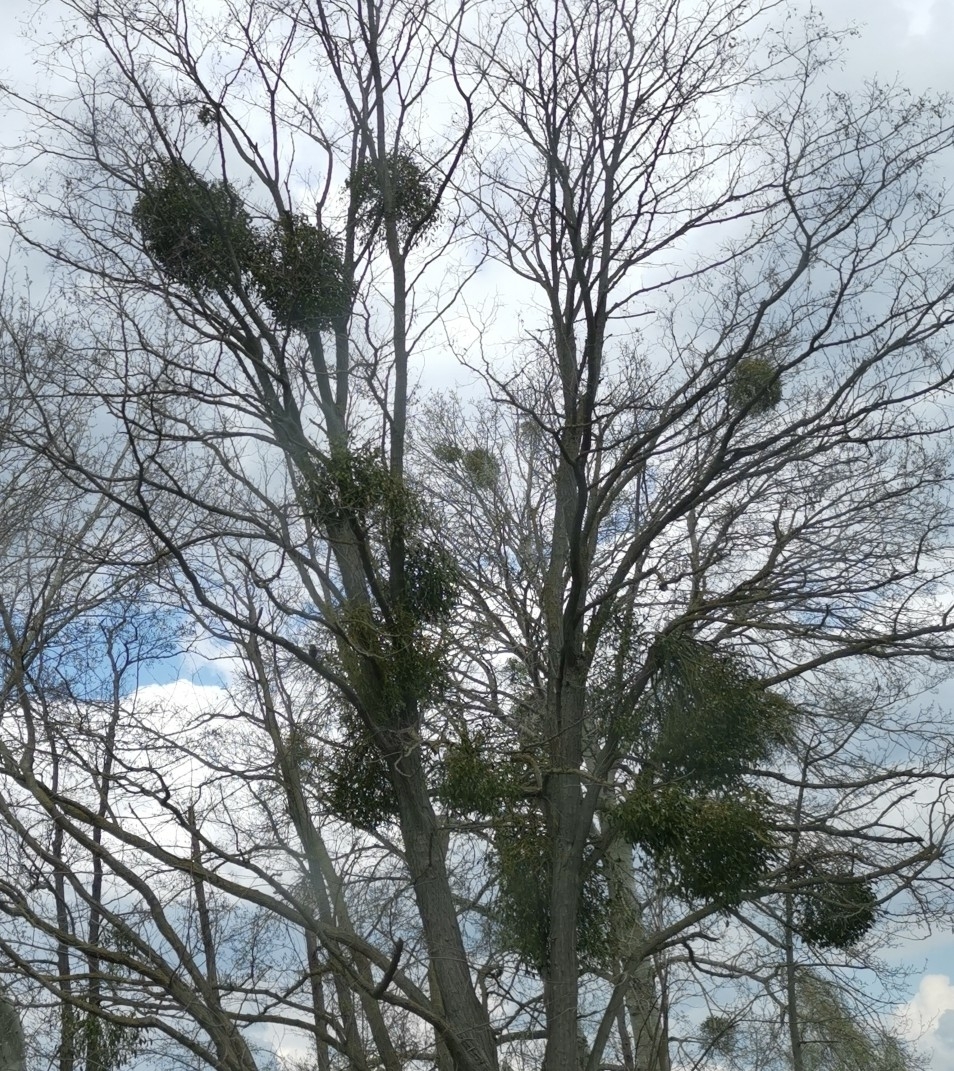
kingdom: Plantae
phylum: Tracheophyta
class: Magnoliopsida
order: Santalales
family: Viscaceae
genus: Viscum
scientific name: Viscum album
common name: Mistletoe
